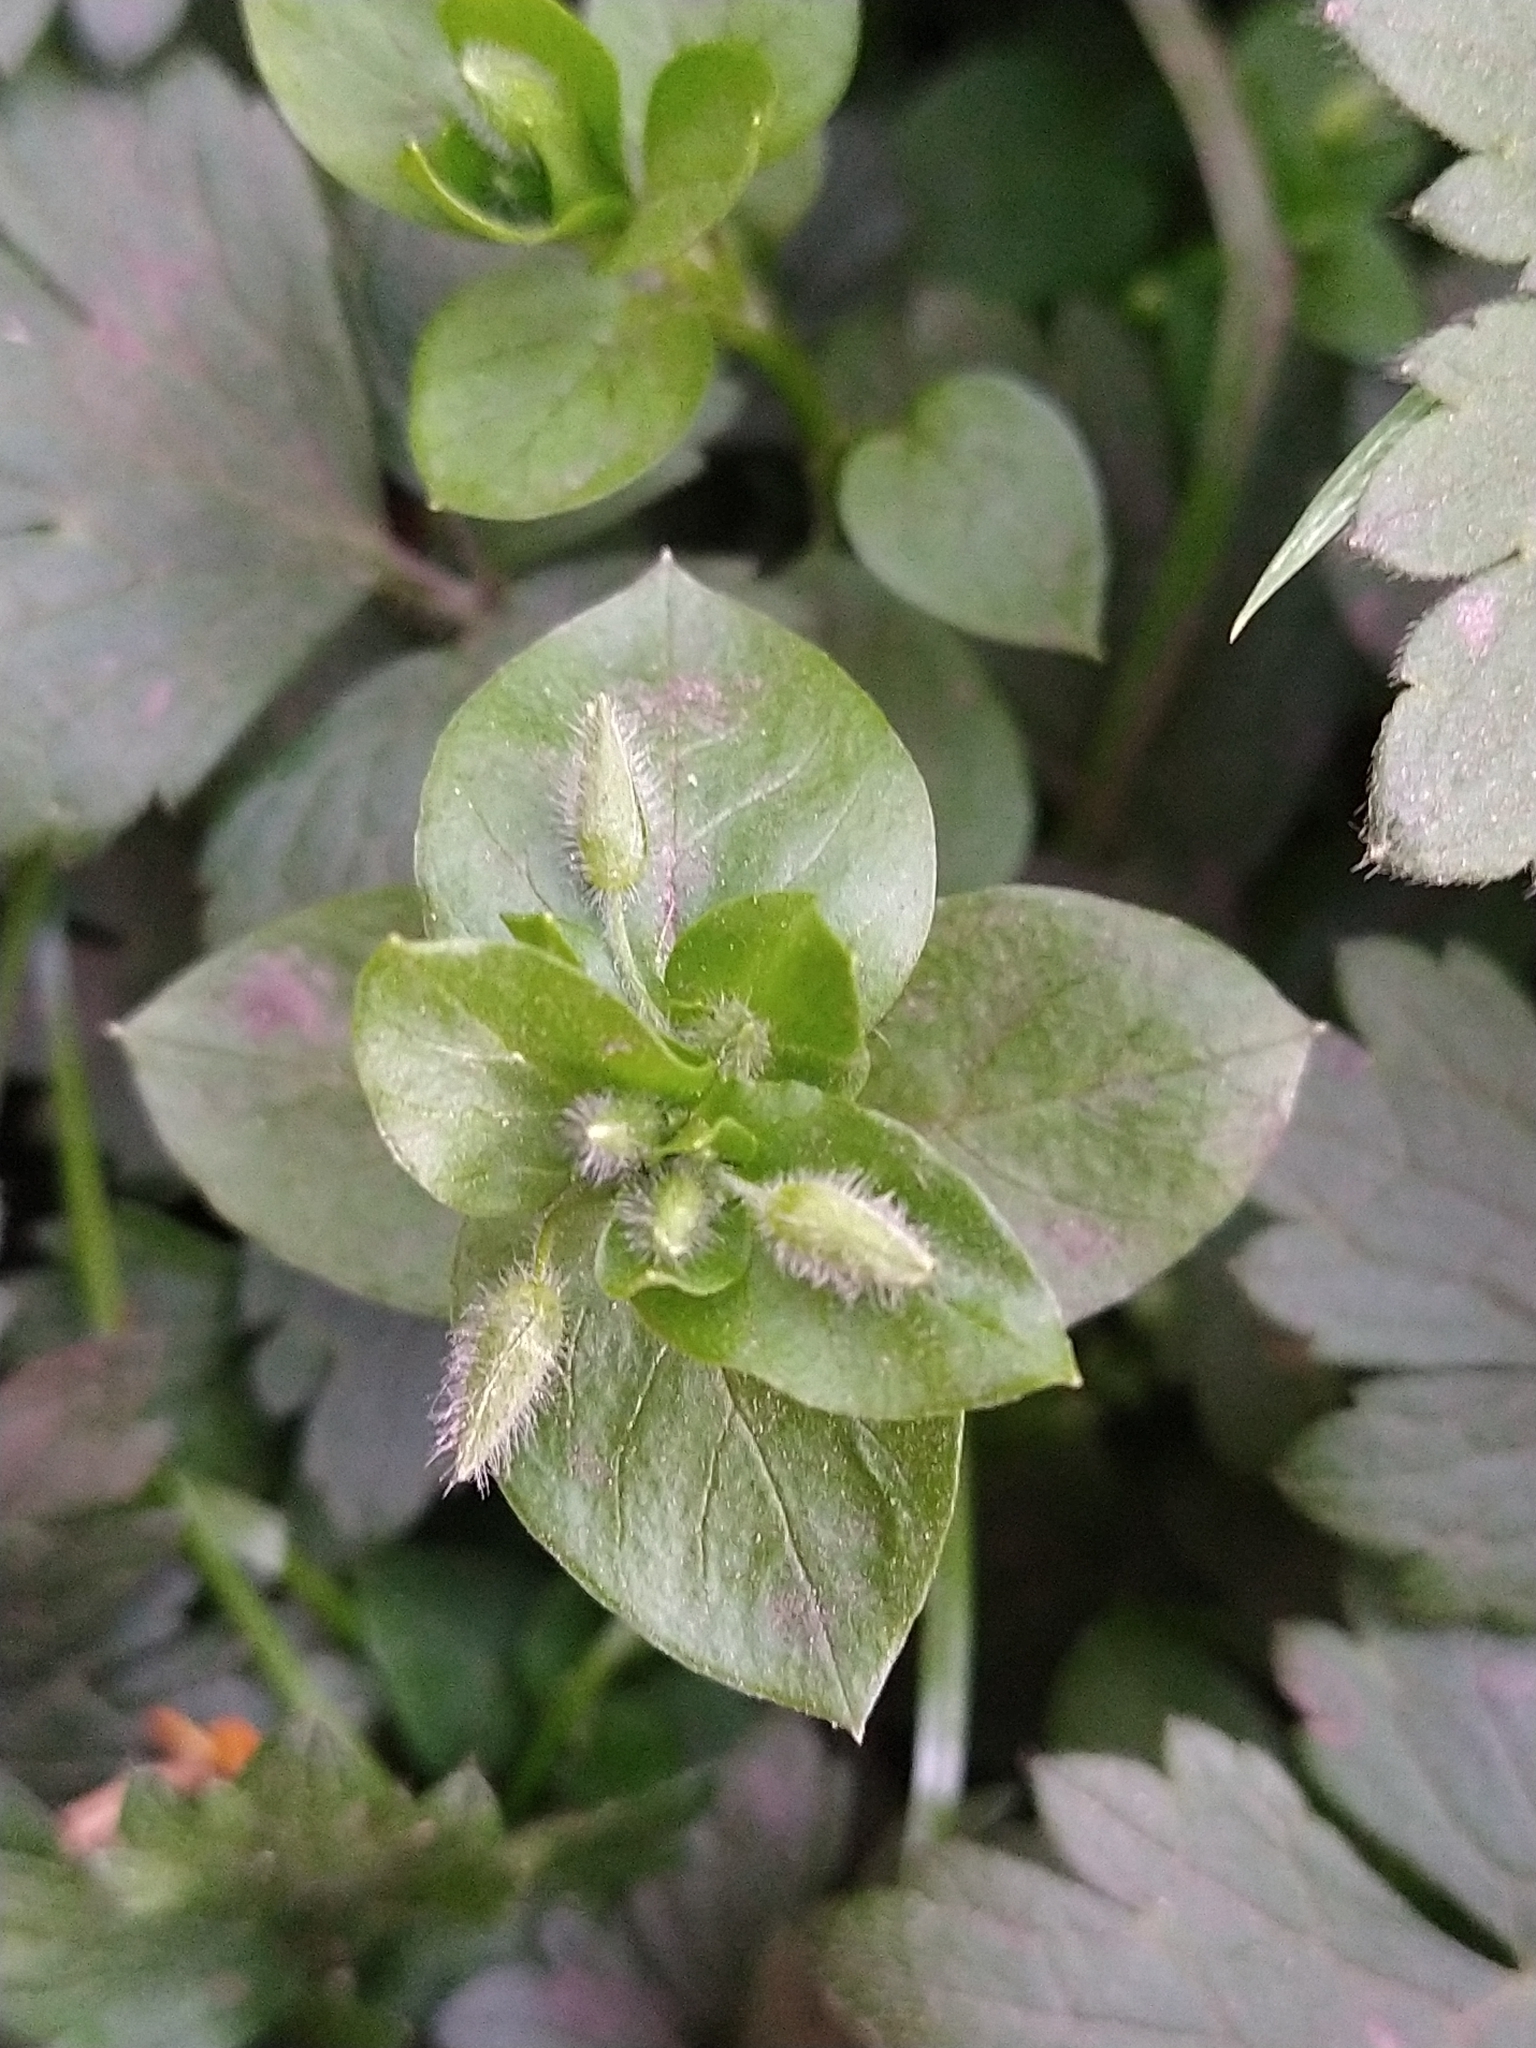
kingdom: Plantae
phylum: Tracheophyta
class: Magnoliopsida
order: Caryophyllales
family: Caryophyllaceae
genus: Stellaria
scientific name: Stellaria media
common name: Common chickweed
